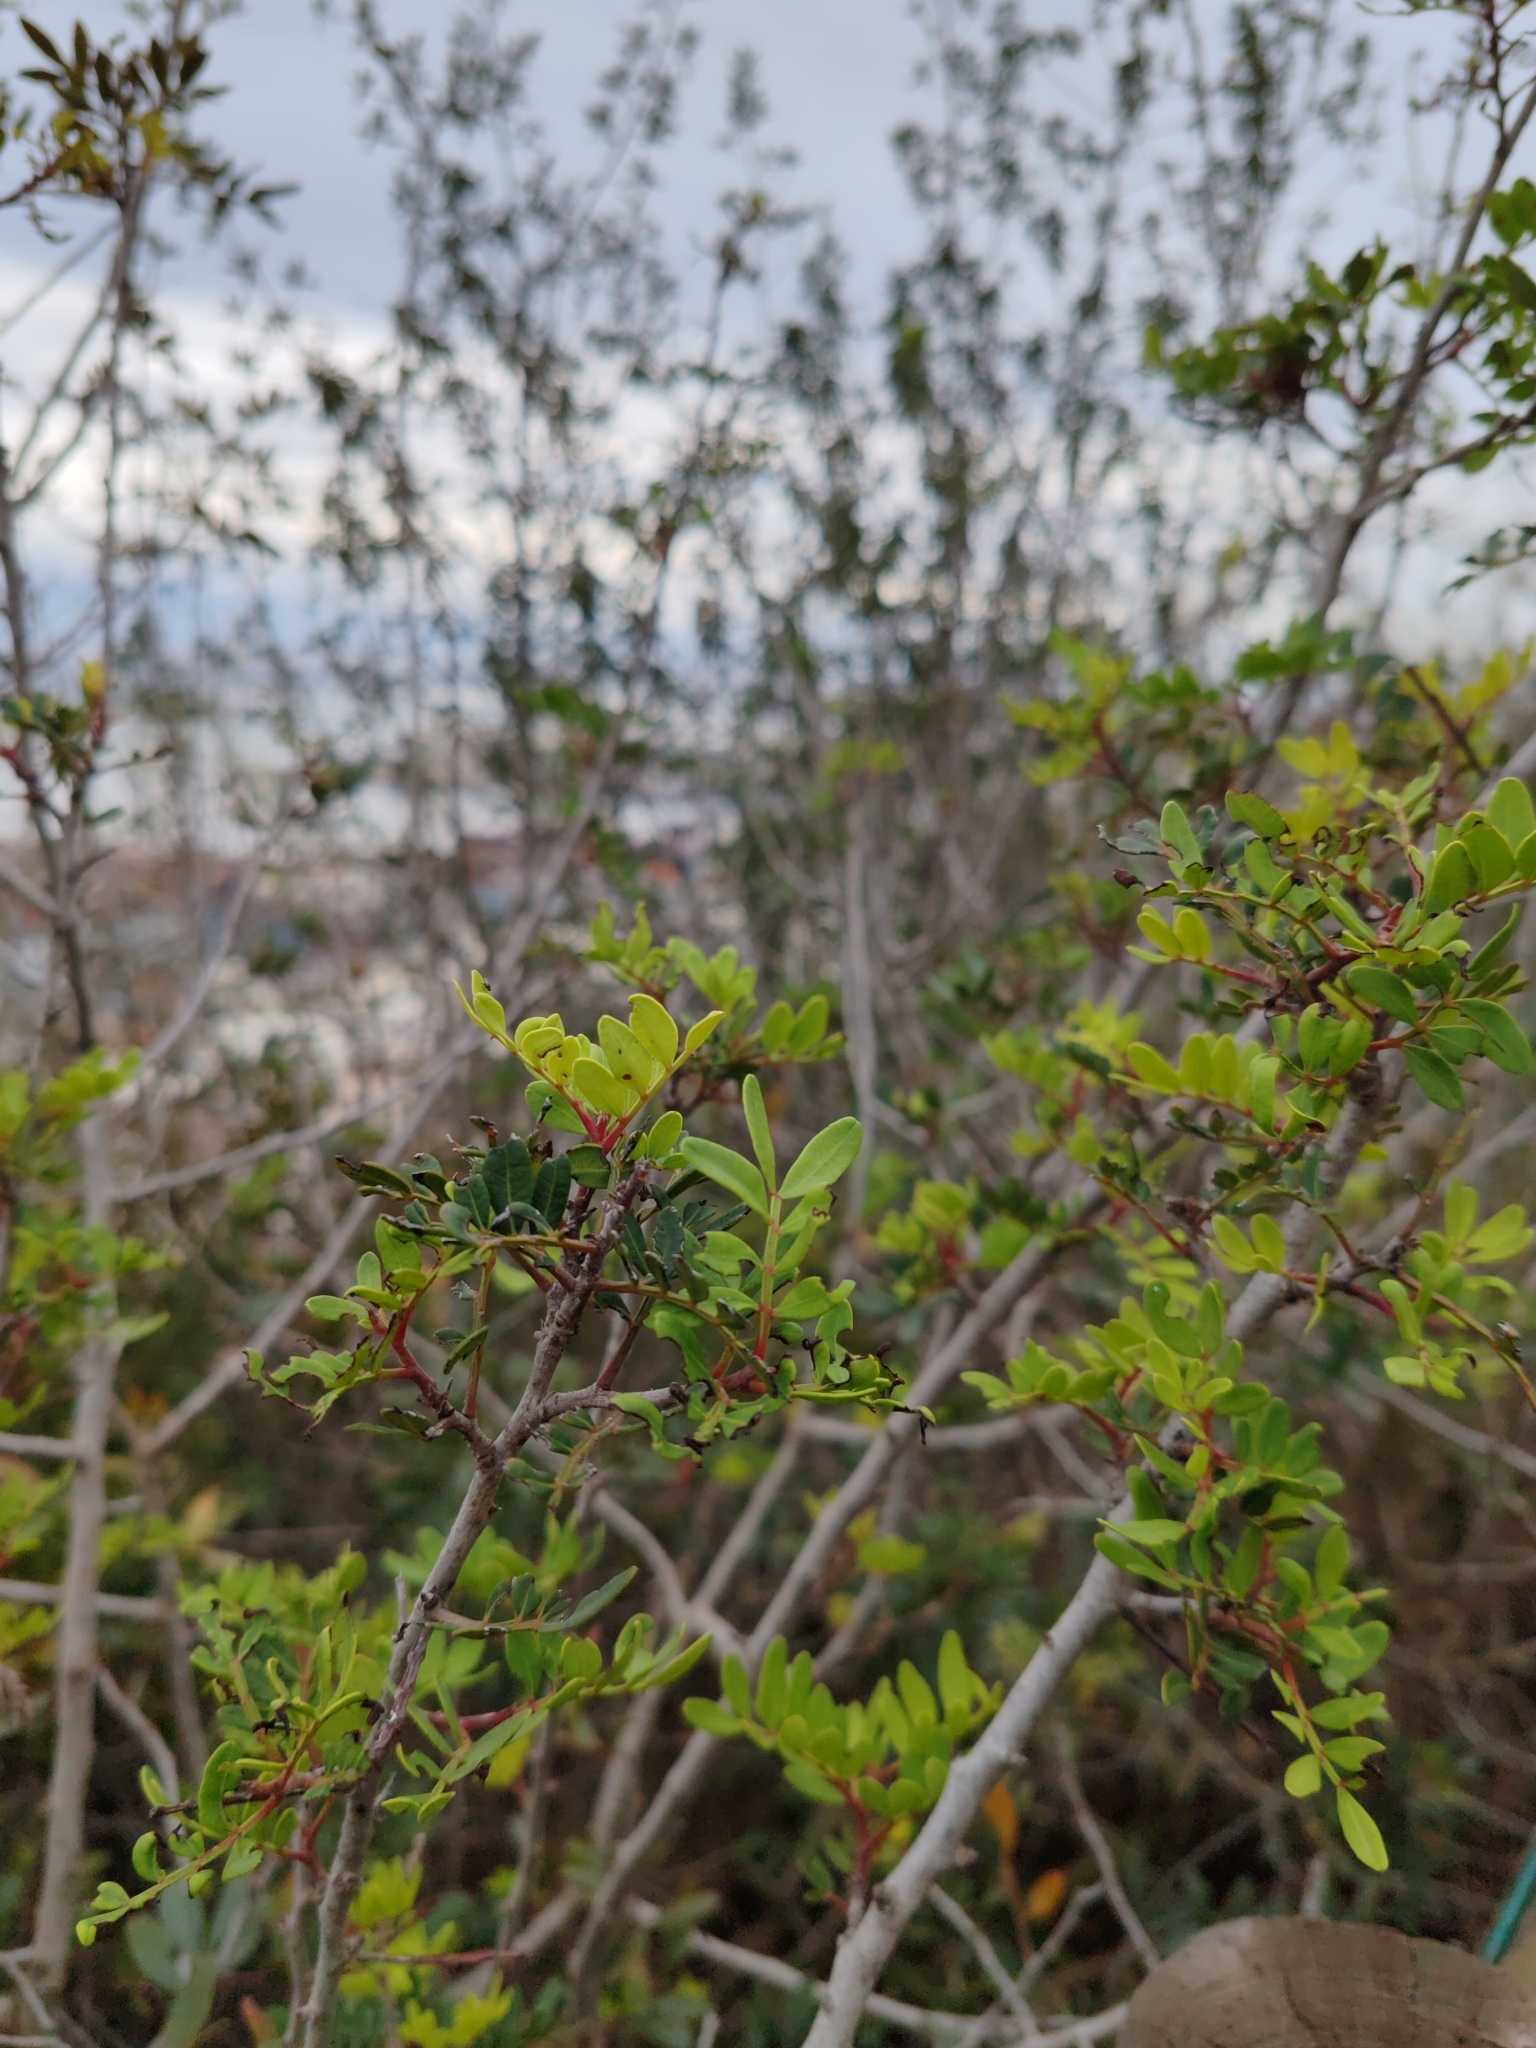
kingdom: Plantae
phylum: Tracheophyta
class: Magnoliopsida
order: Sapindales
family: Anacardiaceae
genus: Pistacia
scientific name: Pistacia lentiscus
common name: Lentisk
